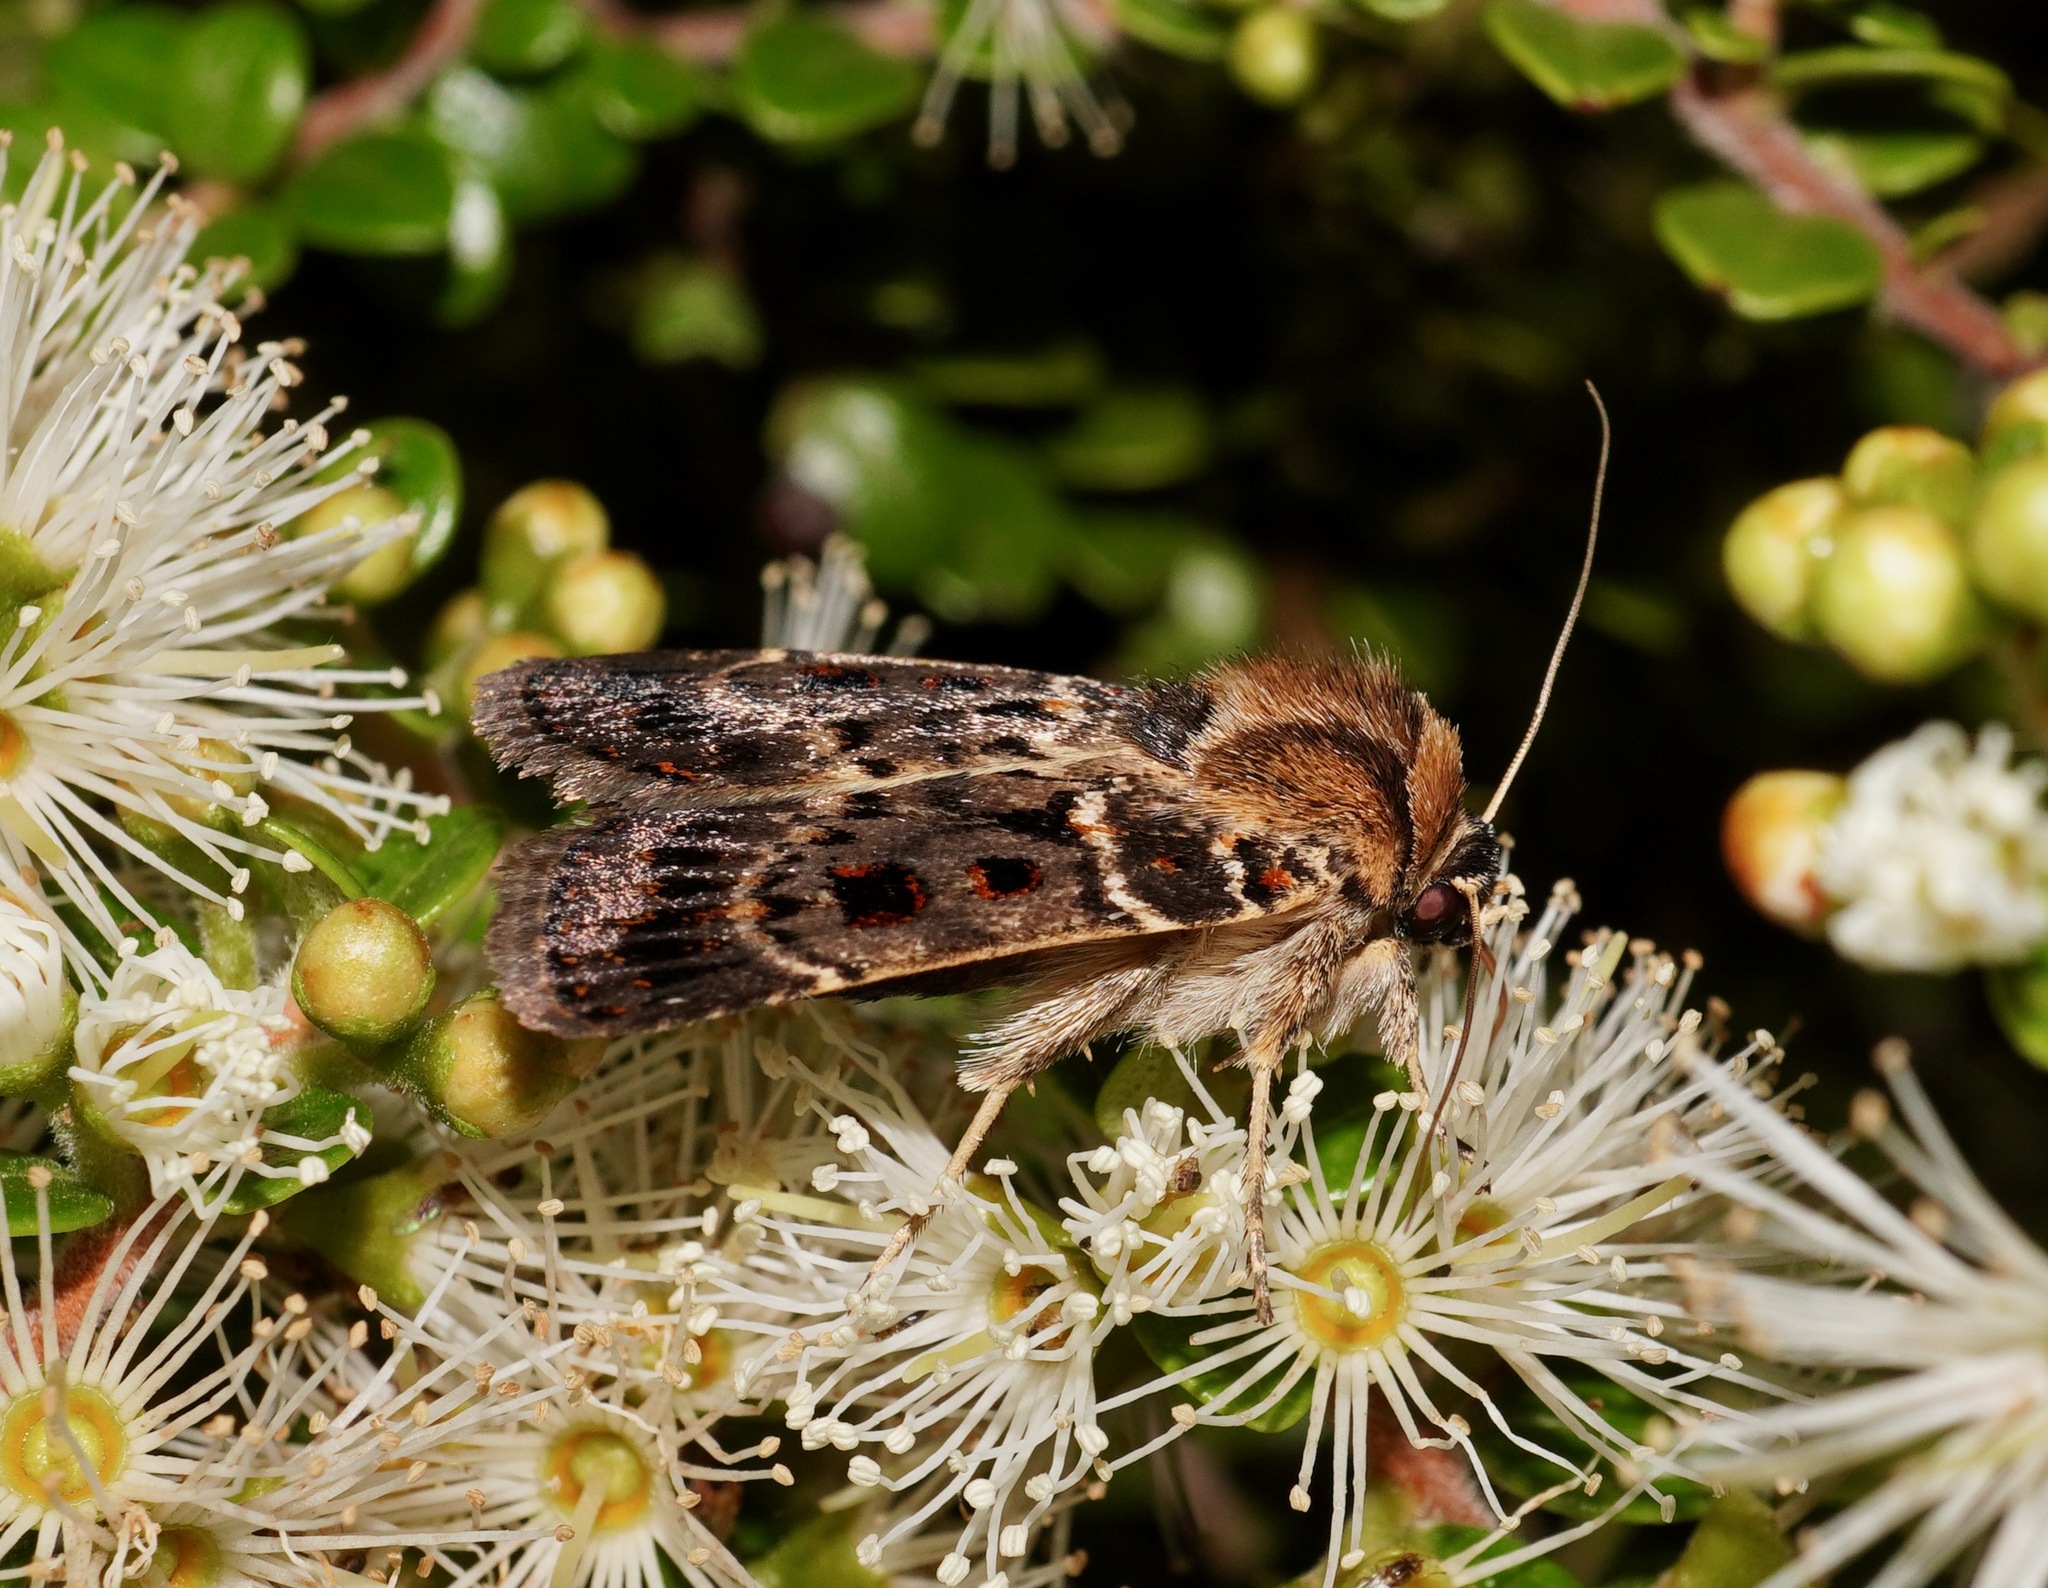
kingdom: Animalia
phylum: Arthropoda
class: Insecta
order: Lepidoptera
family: Noctuidae
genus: Proteuxoa
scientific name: Proteuxoa sanguinipuncta
